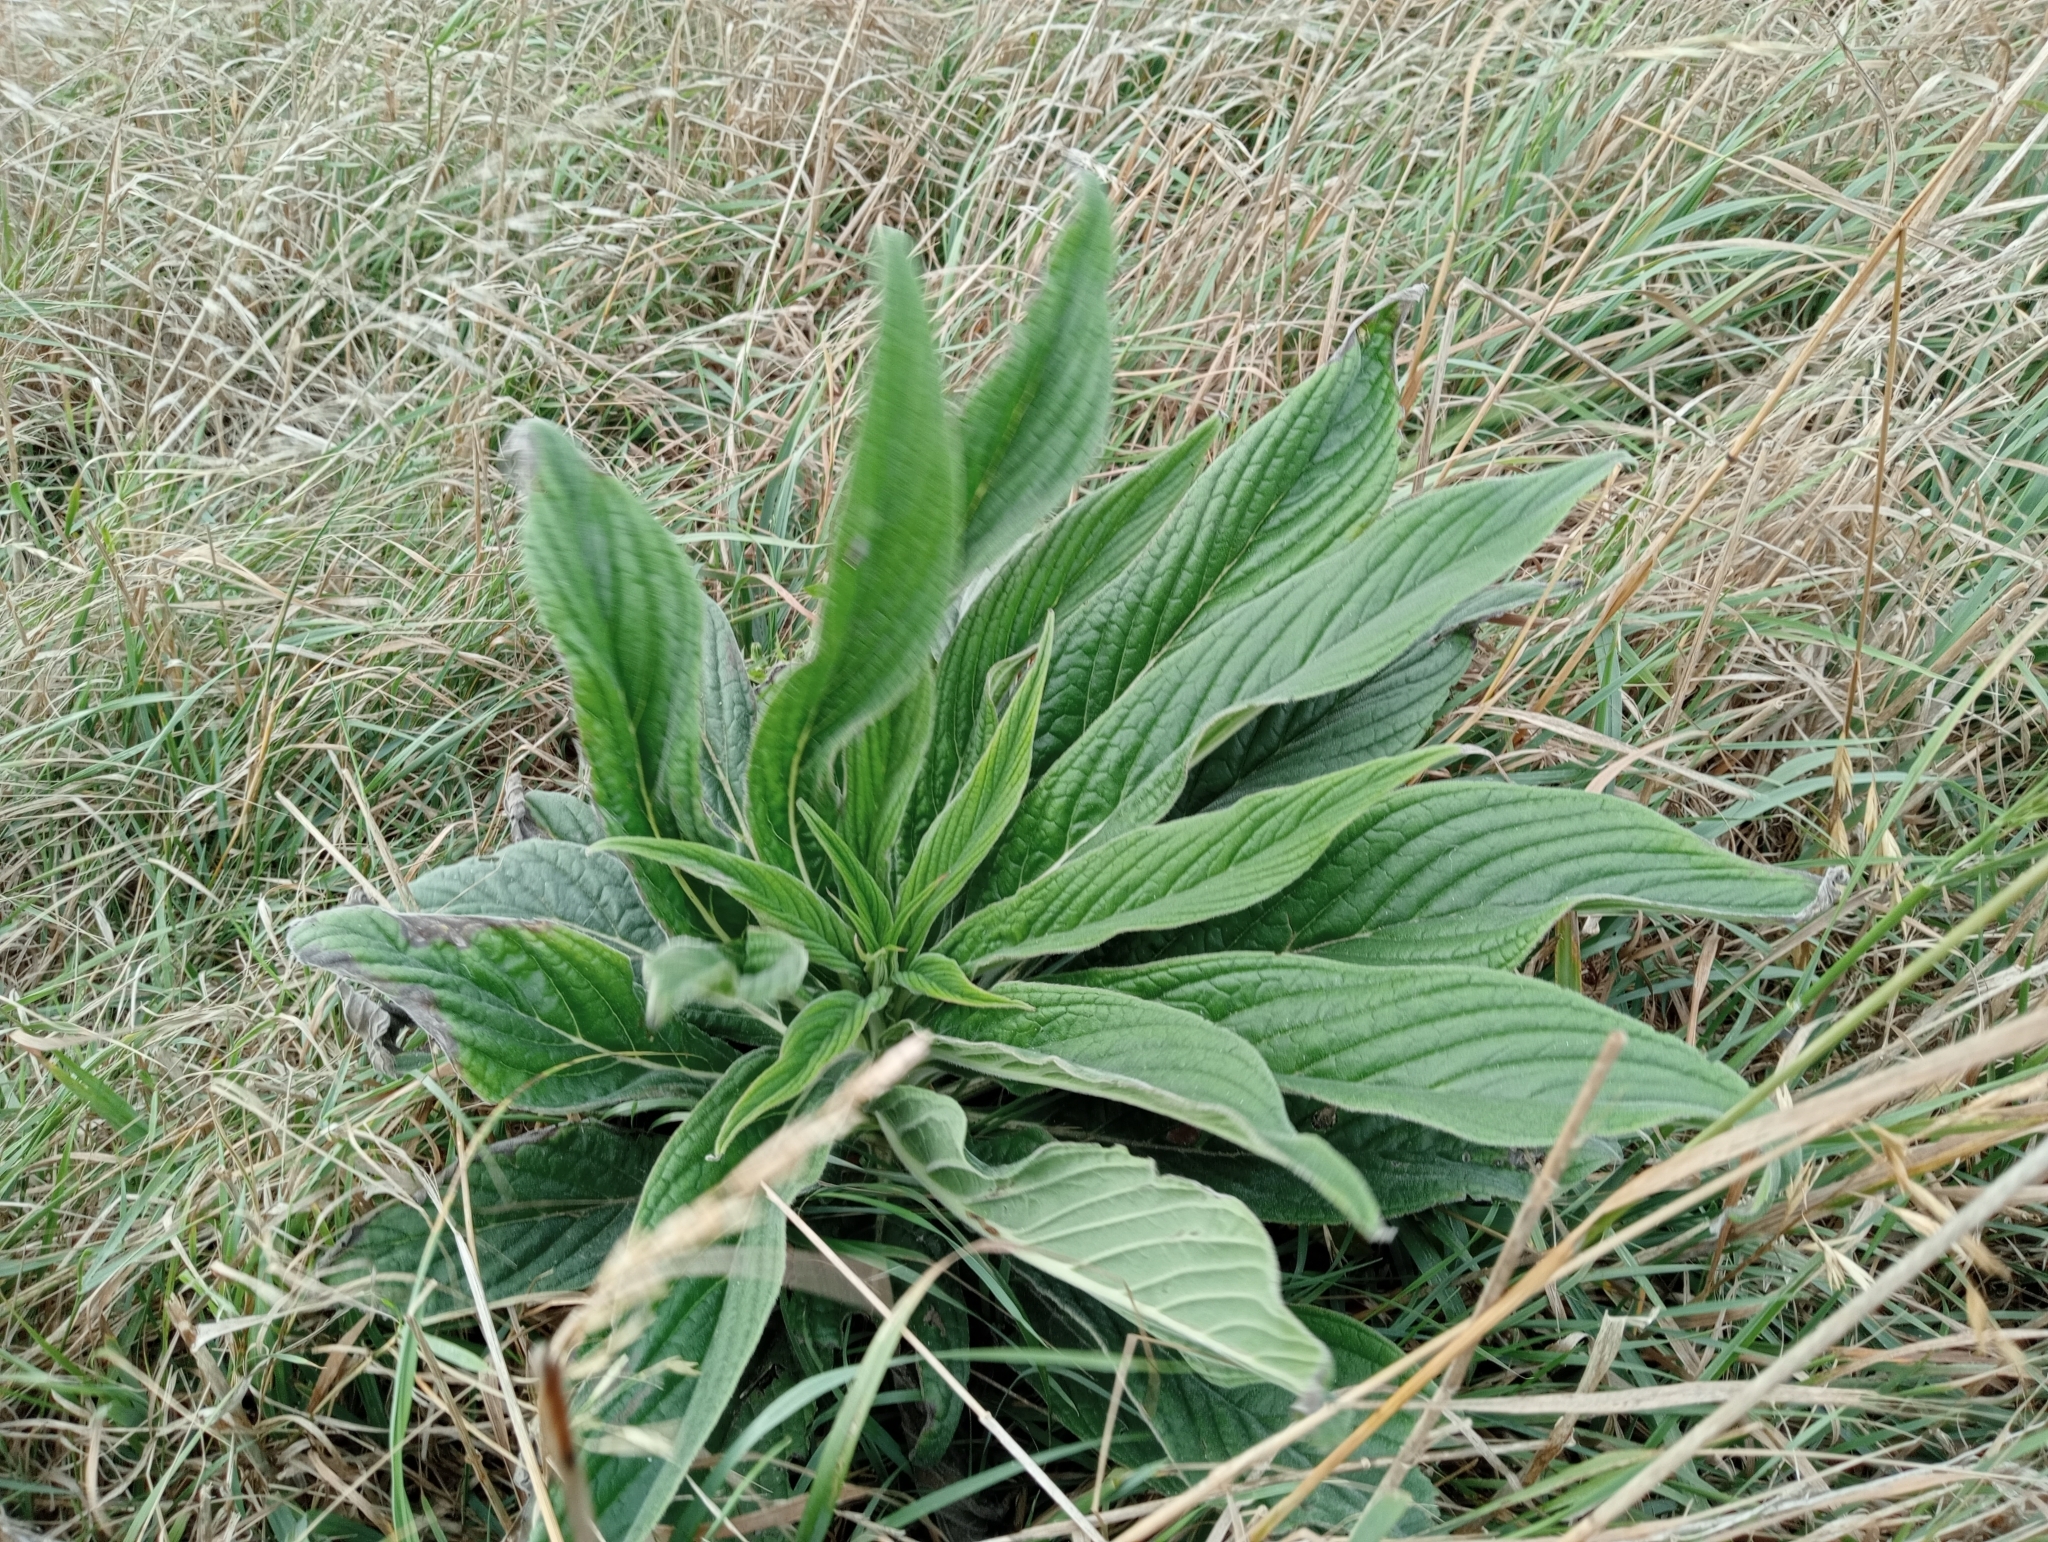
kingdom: Plantae
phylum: Tracheophyta
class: Magnoliopsida
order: Boraginales
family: Boraginaceae
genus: Echium
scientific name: Echium pininana
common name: Giant viper's-bugloss
